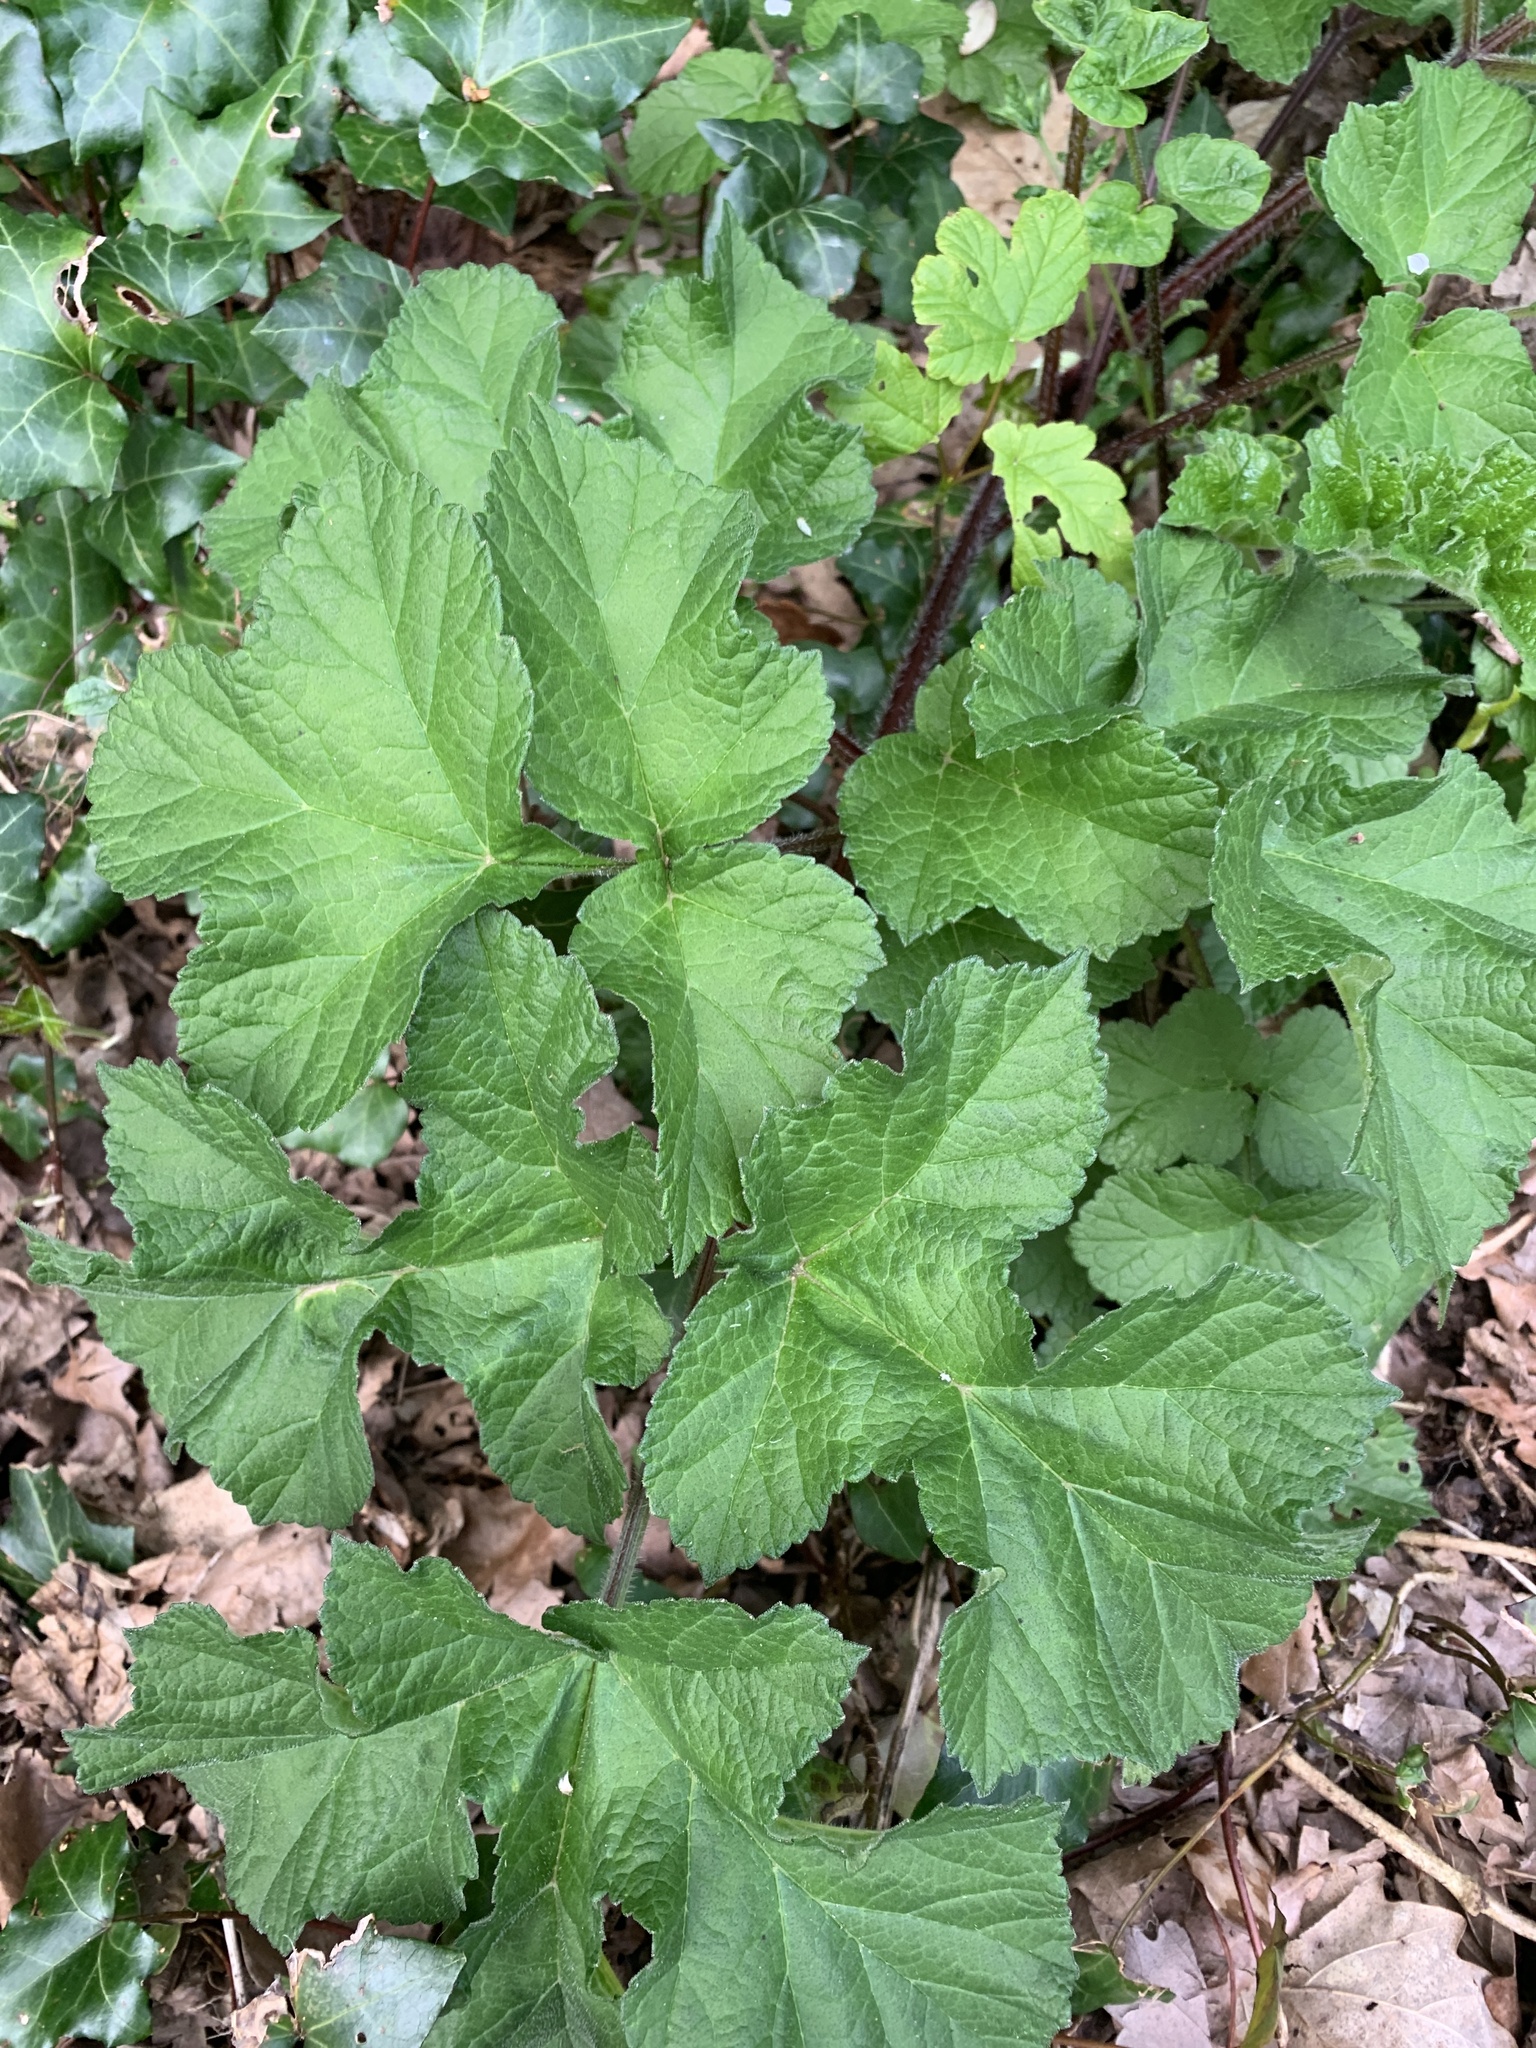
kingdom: Plantae
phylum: Tracheophyta
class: Magnoliopsida
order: Apiales
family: Apiaceae
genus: Heracleum
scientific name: Heracleum sphondylium
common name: Hogweed
